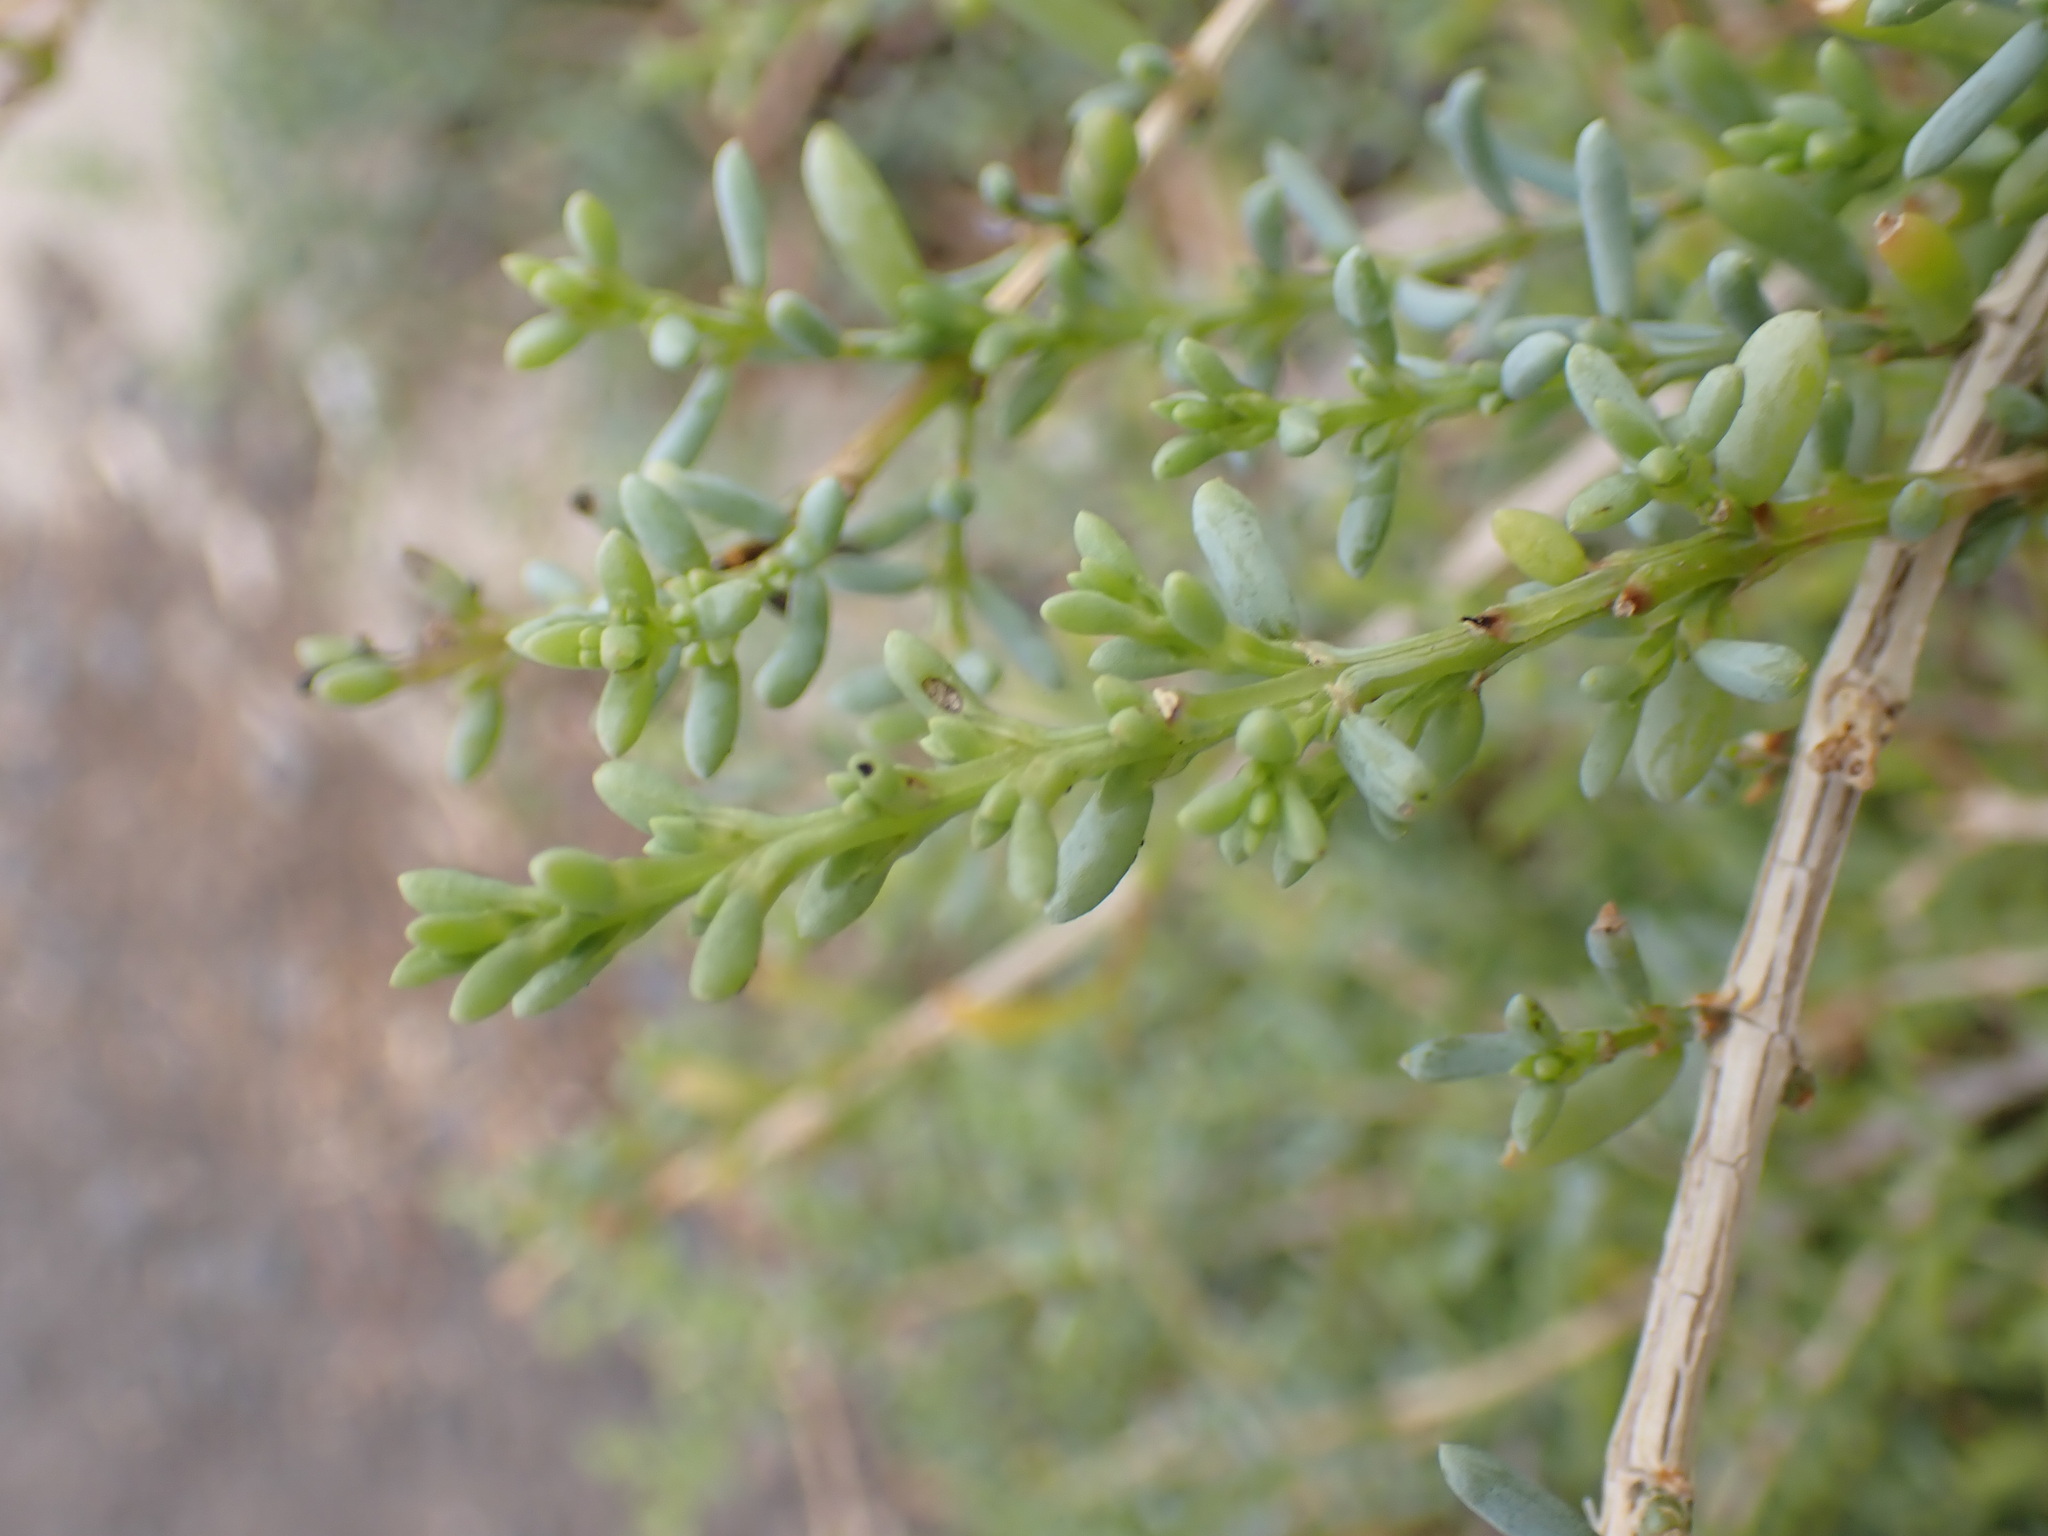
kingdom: Plantae
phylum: Tracheophyta
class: Magnoliopsida
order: Caryophyllales
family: Amaranthaceae
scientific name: Amaranthaceae
